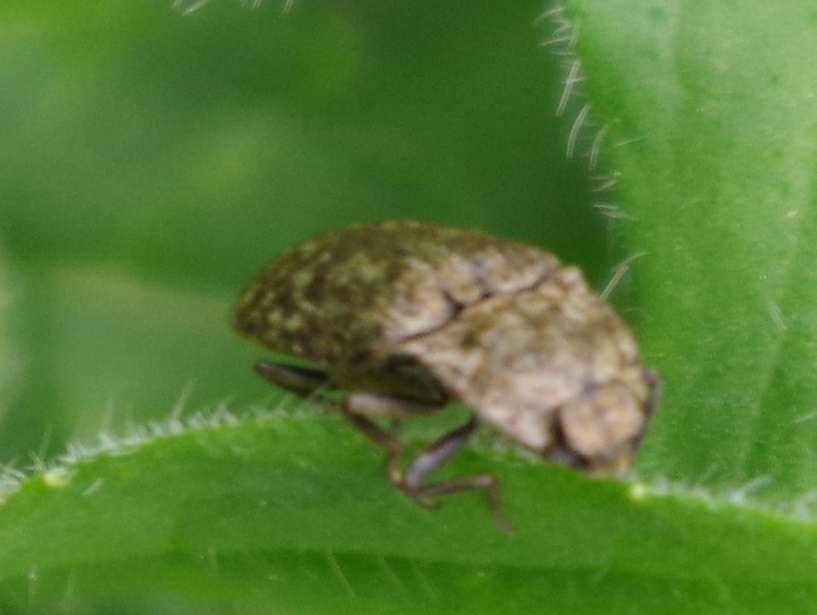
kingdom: Animalia
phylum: Arthropoda
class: Insecta
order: Coleoptera
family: Elateridae
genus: Agrypnus
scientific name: Agrypnus murinus
